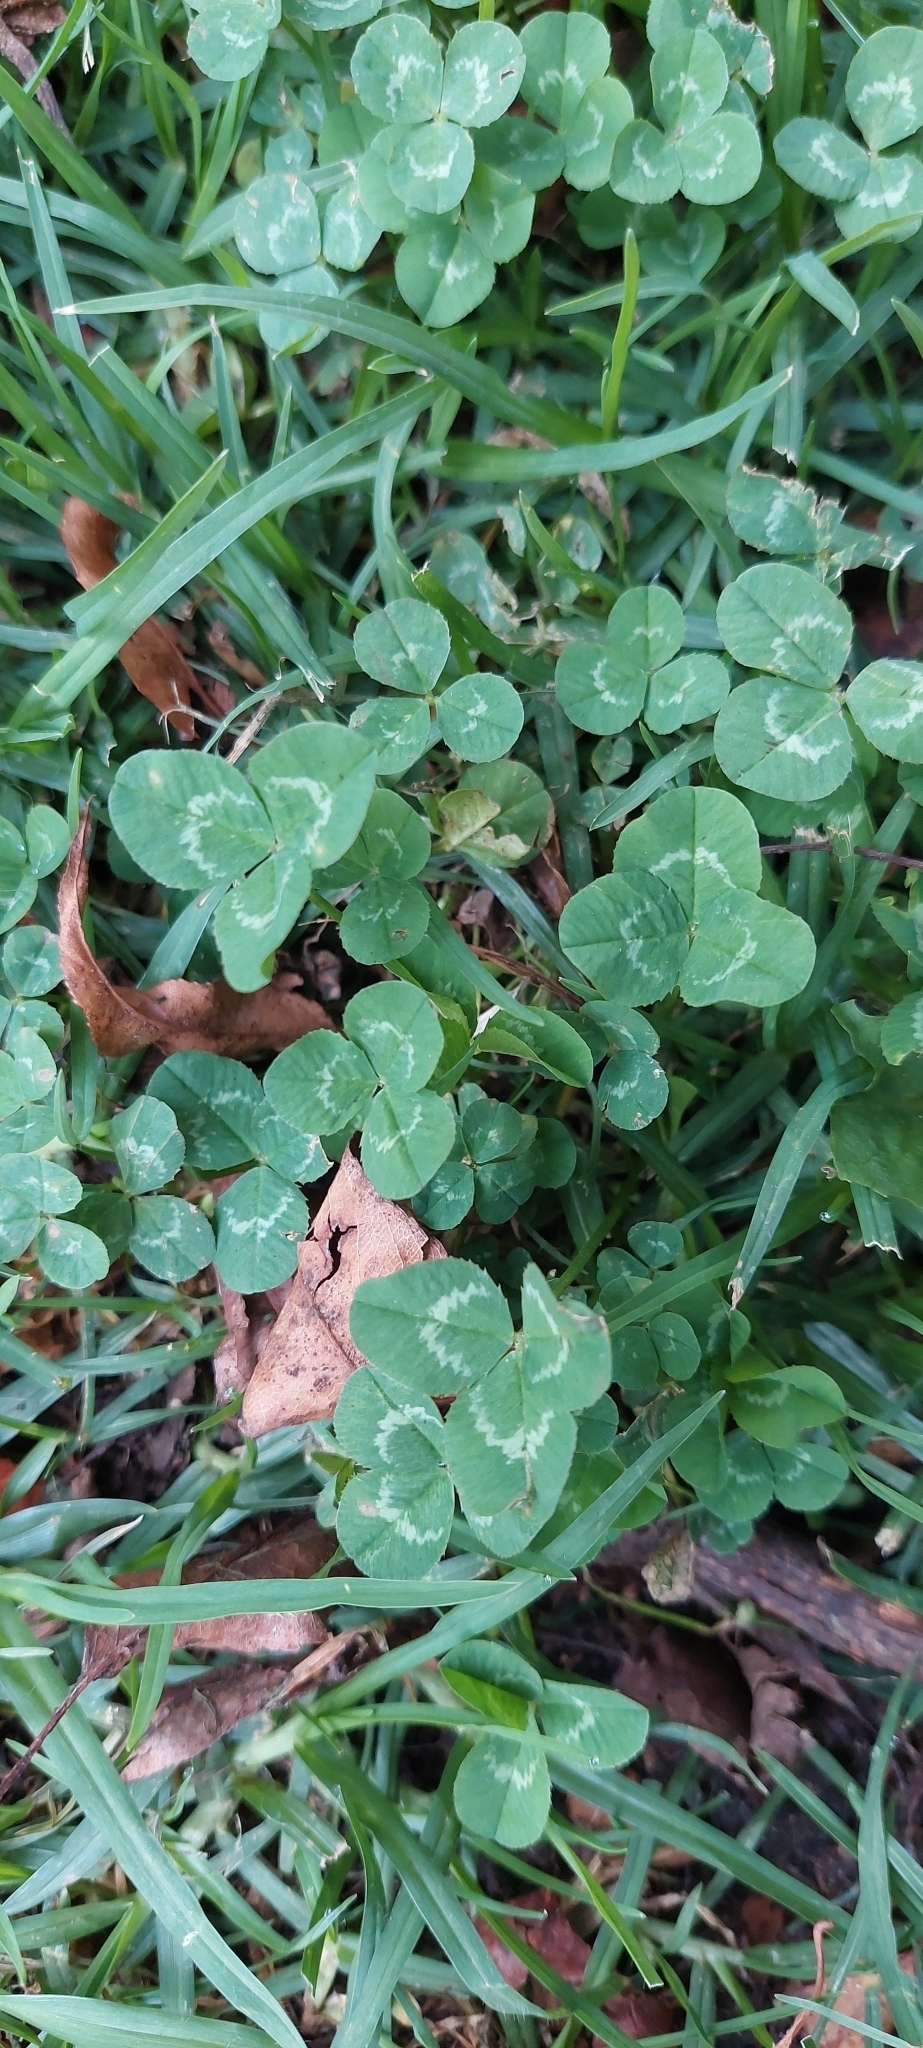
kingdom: Plantae
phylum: Tracheophyta
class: Magnoliopsida
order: Fabales
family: Fabaceae
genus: Trifolium
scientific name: Trifolium repens
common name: White clover
